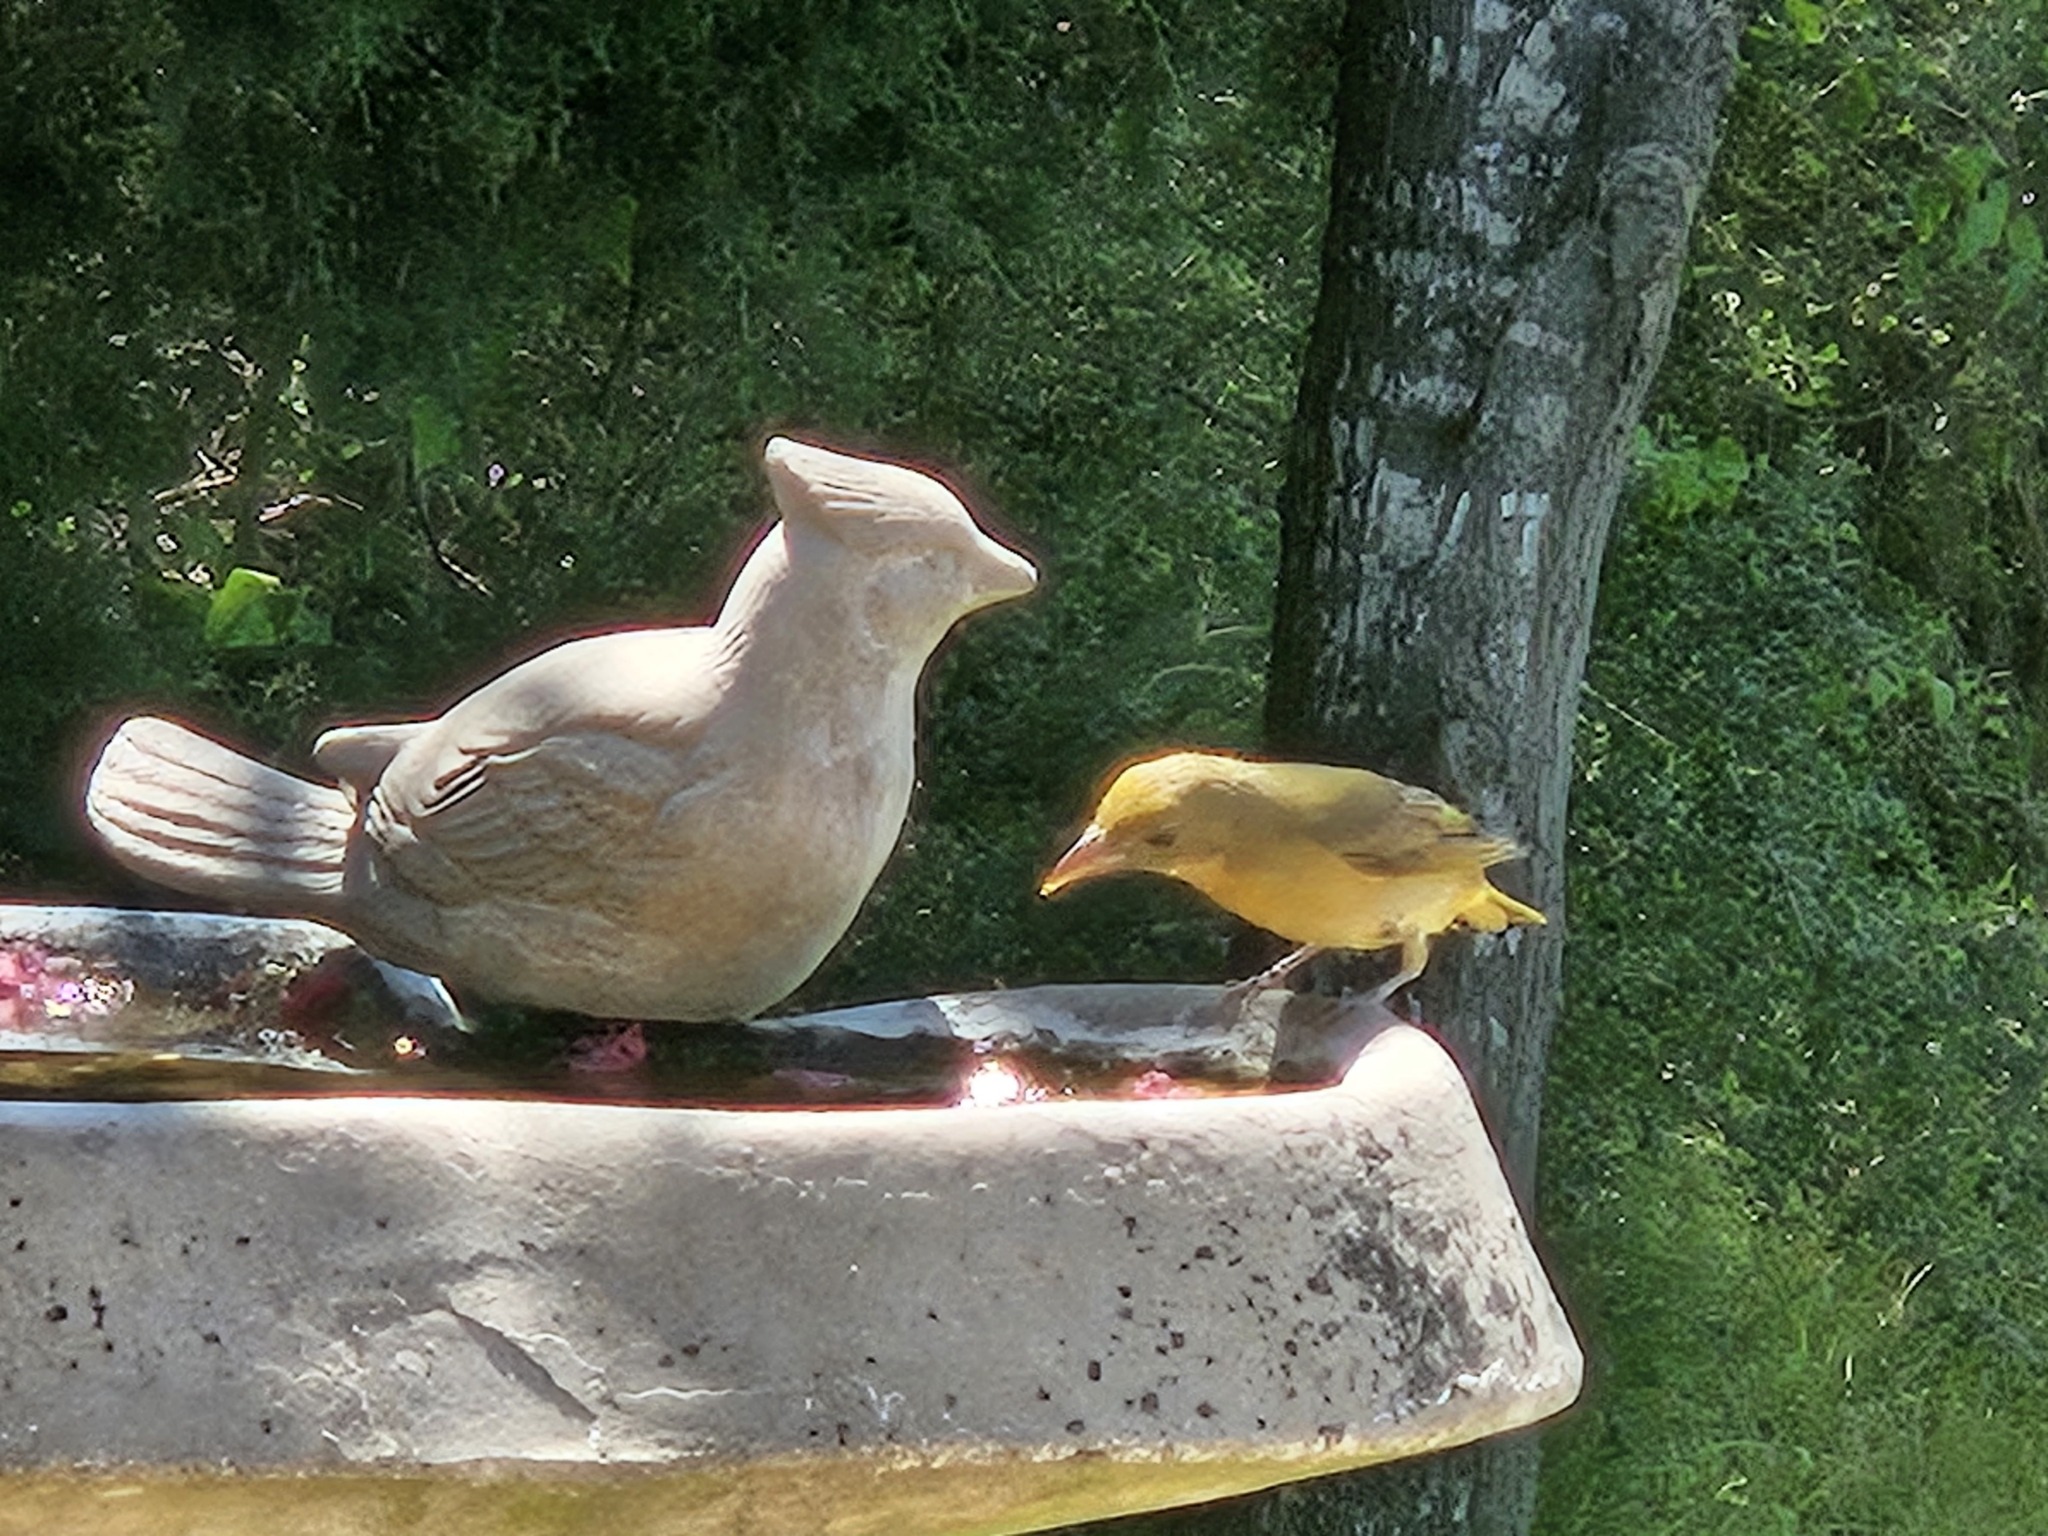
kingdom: Animalia
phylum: Chordata
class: Aves
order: Passeriformes
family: Cardinalidae
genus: Piranga
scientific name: Piranga rubra
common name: Summer tanager
